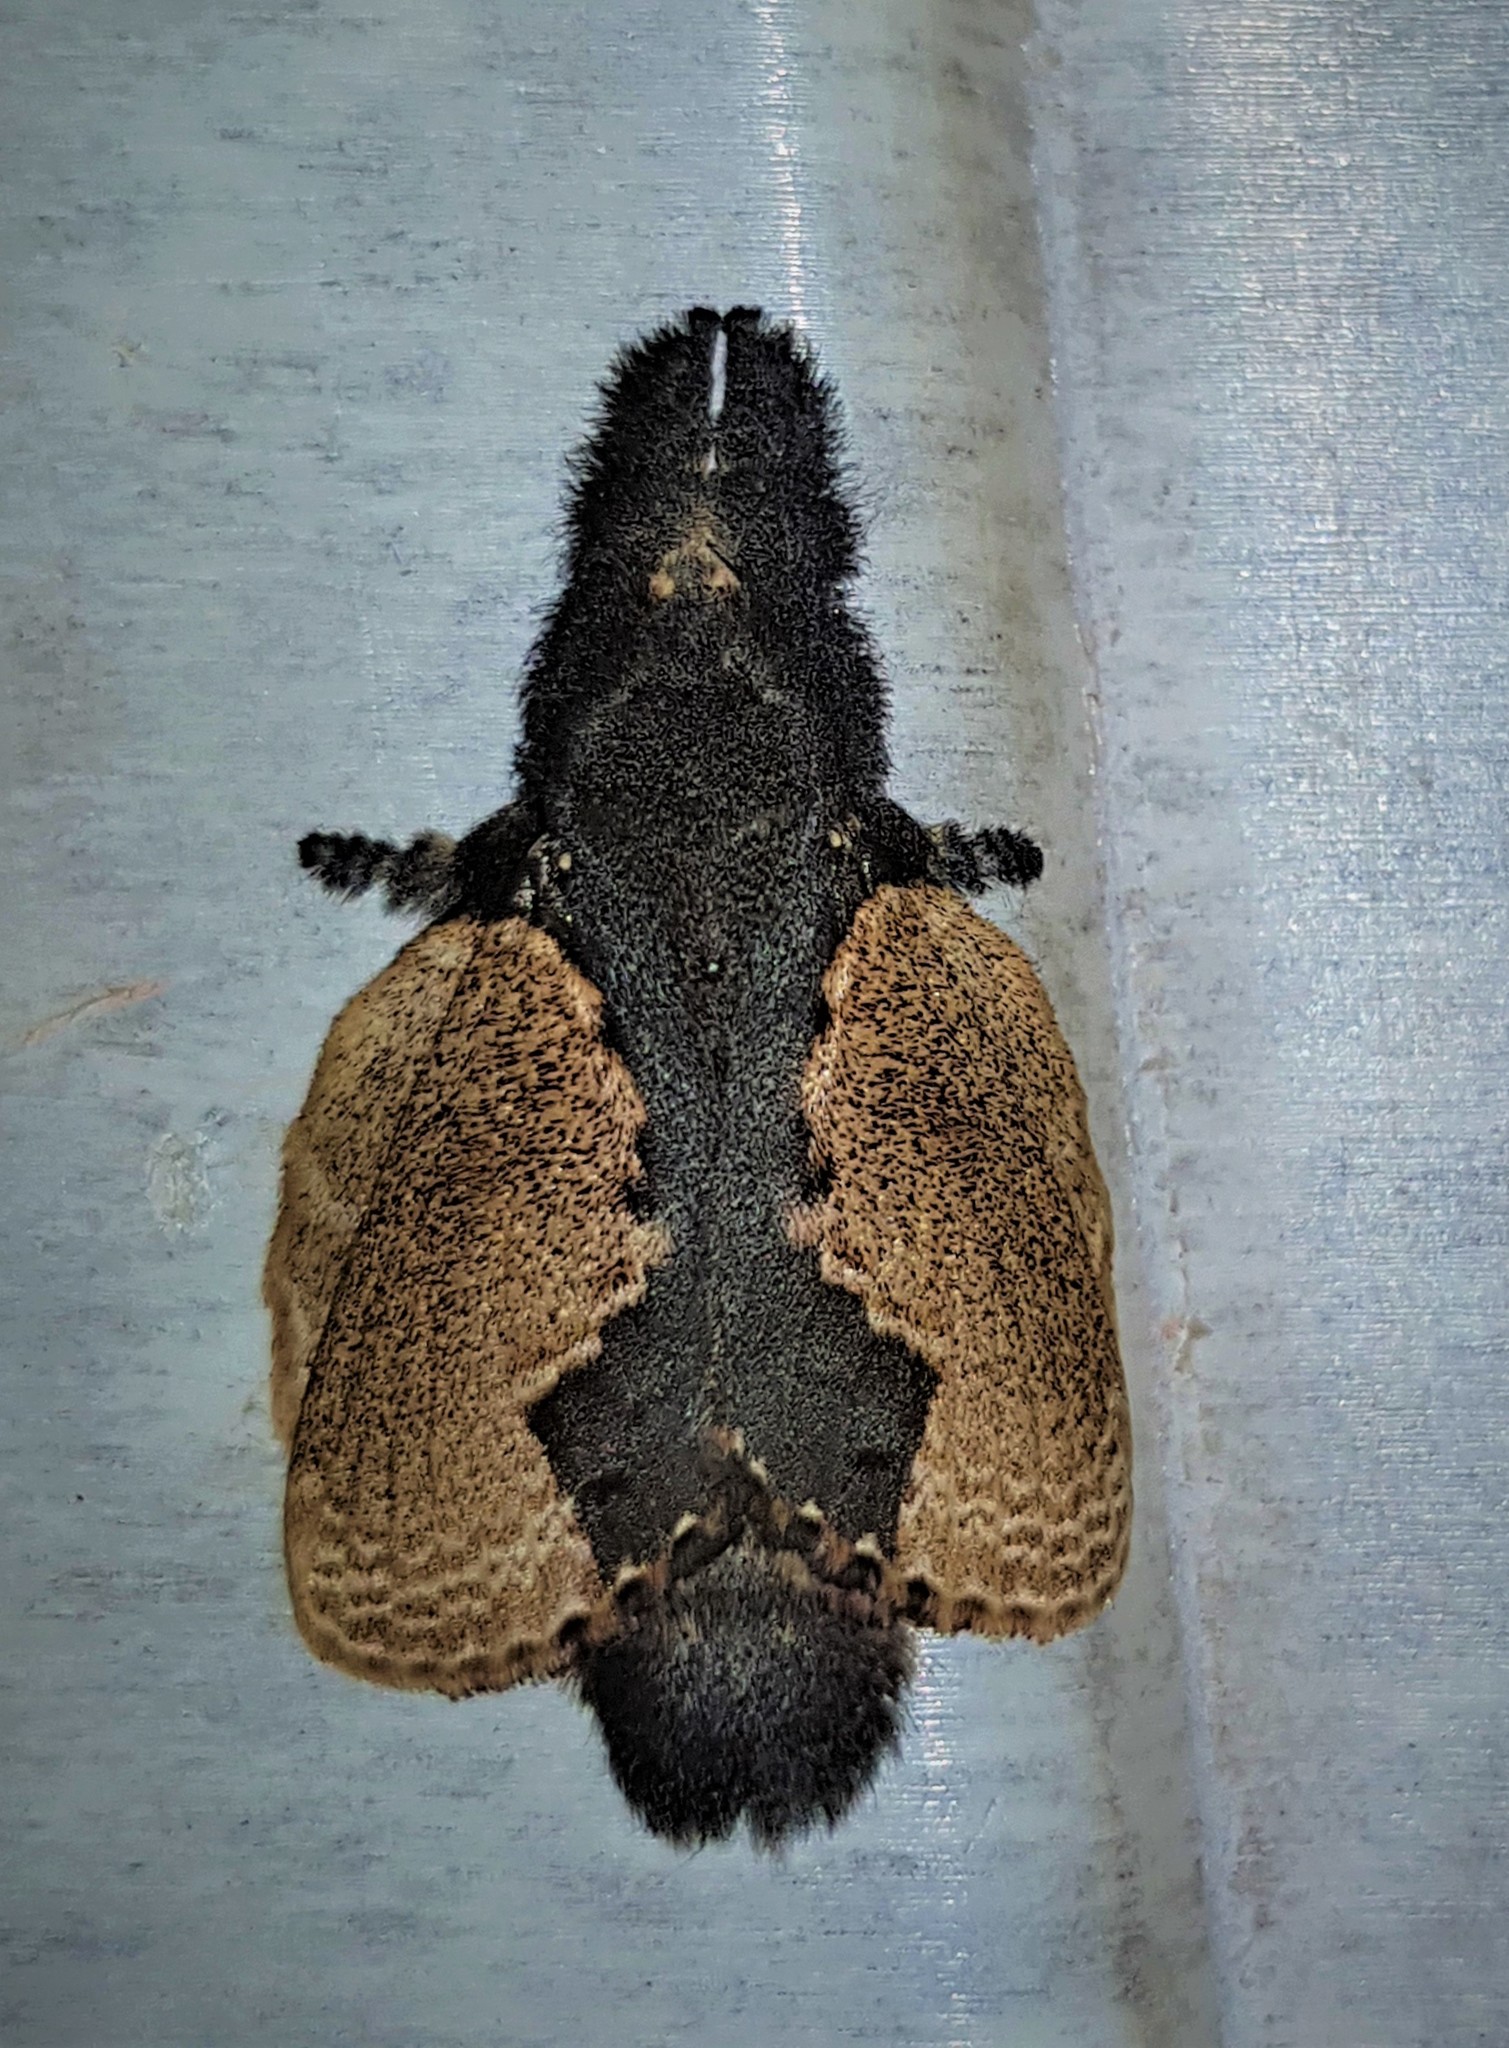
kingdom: Animalia
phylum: Arthropoda
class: Insecta
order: Lepidoptera
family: Lasiocampidae
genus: Euglyphis
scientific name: Euglyphis marna
